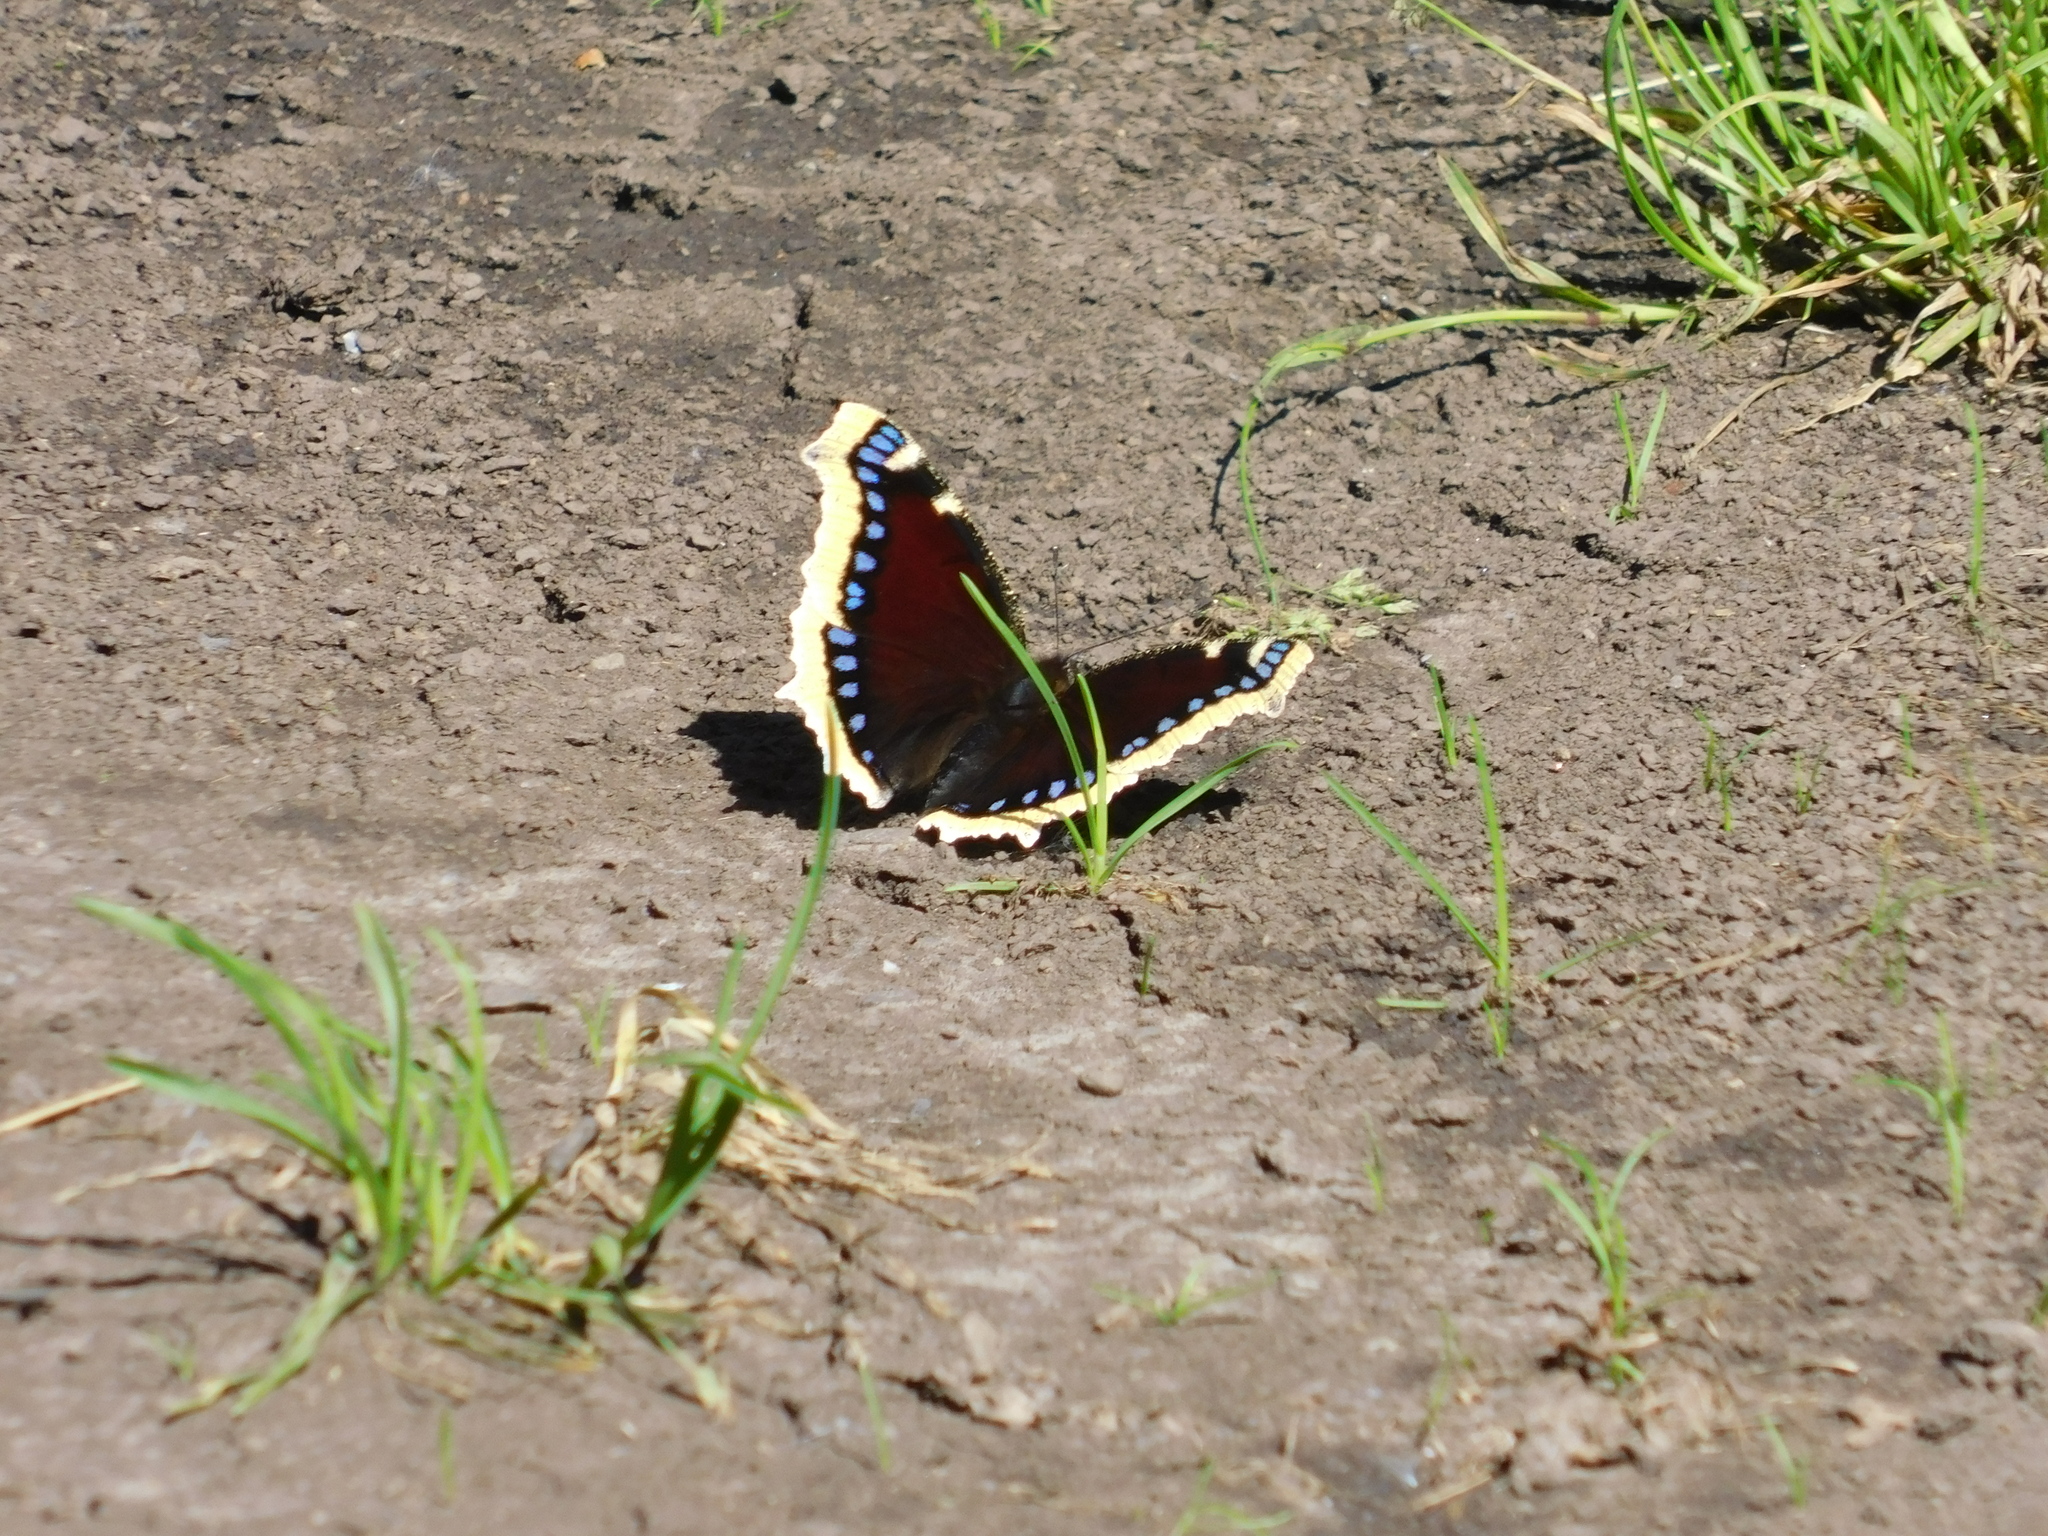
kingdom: Animalia
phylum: Arthropoda
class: Insecta
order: Lepidoptera
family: Nymphalidae
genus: Nymphalis
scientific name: Nymphalis antiopa
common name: Camberwell beauty
